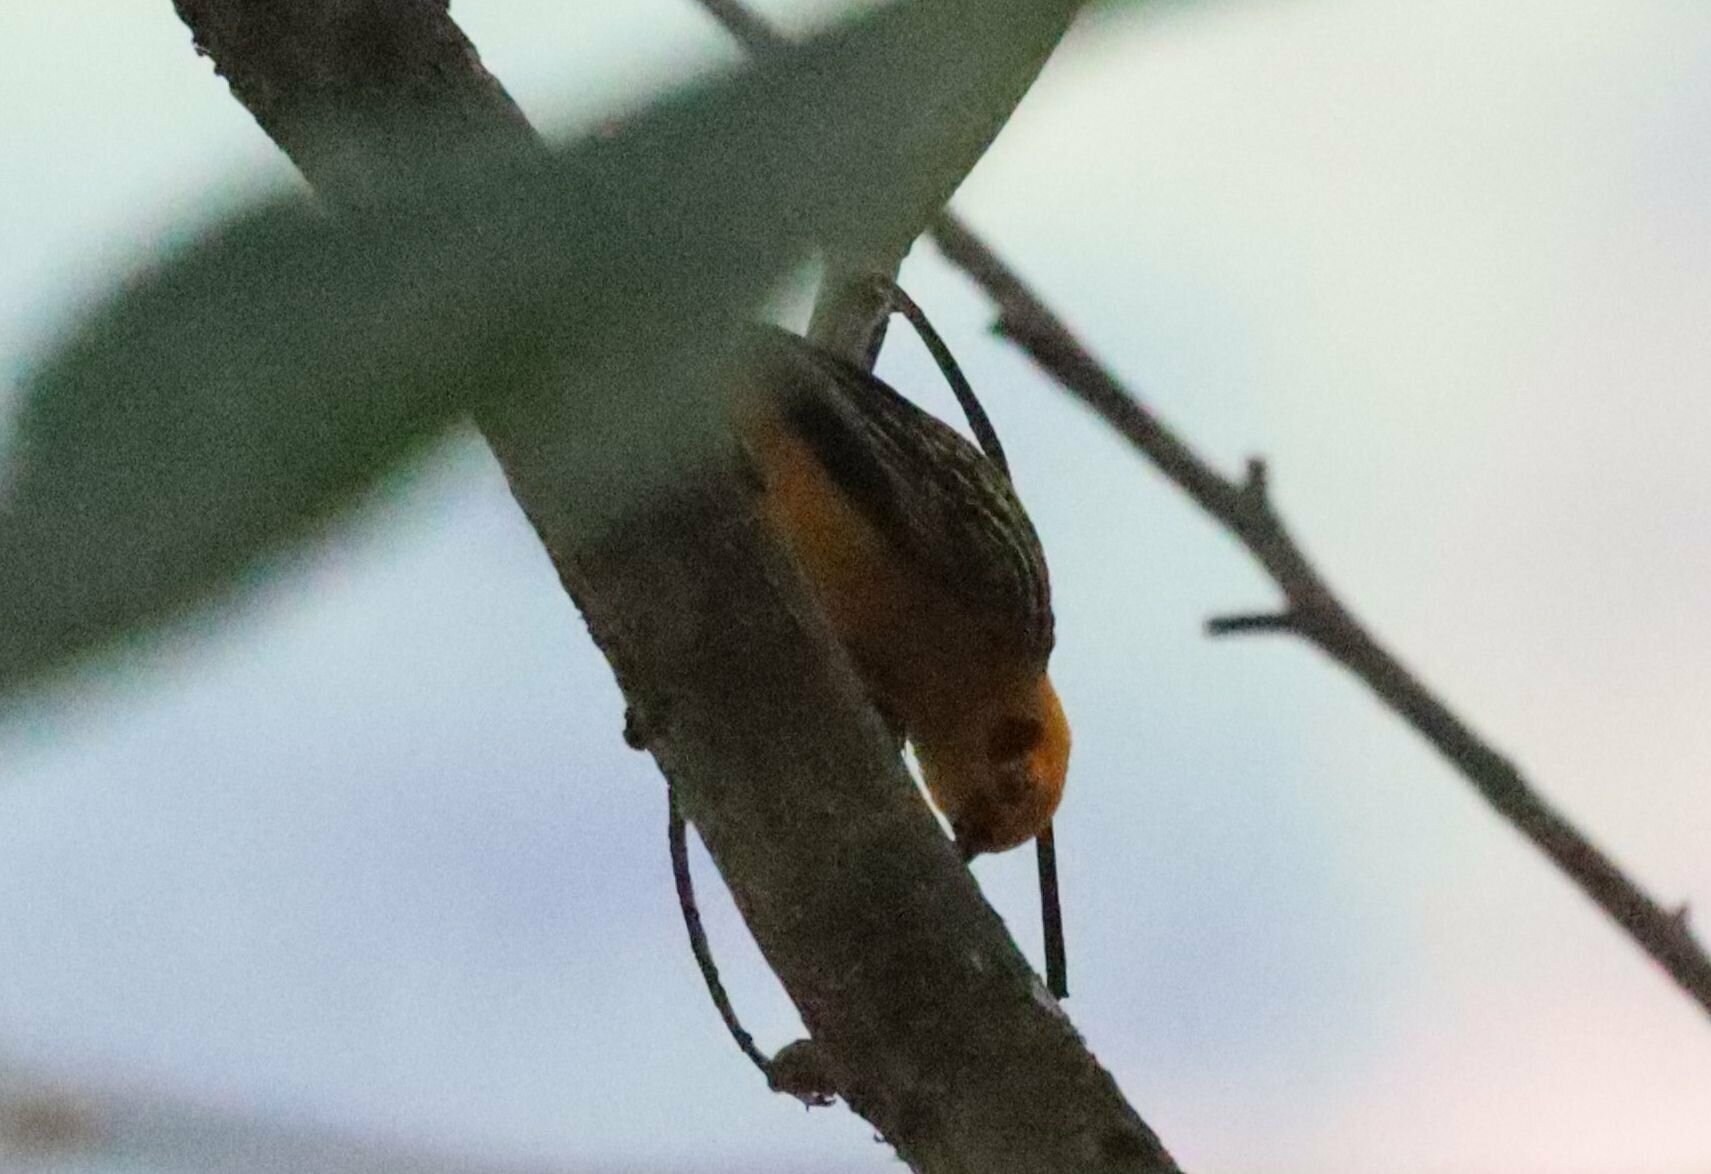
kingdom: Animalia
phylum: Chordata
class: Aves
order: Passeriformes
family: Thraupidae
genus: Tangara
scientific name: Tangara arthus
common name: Golden tanager
